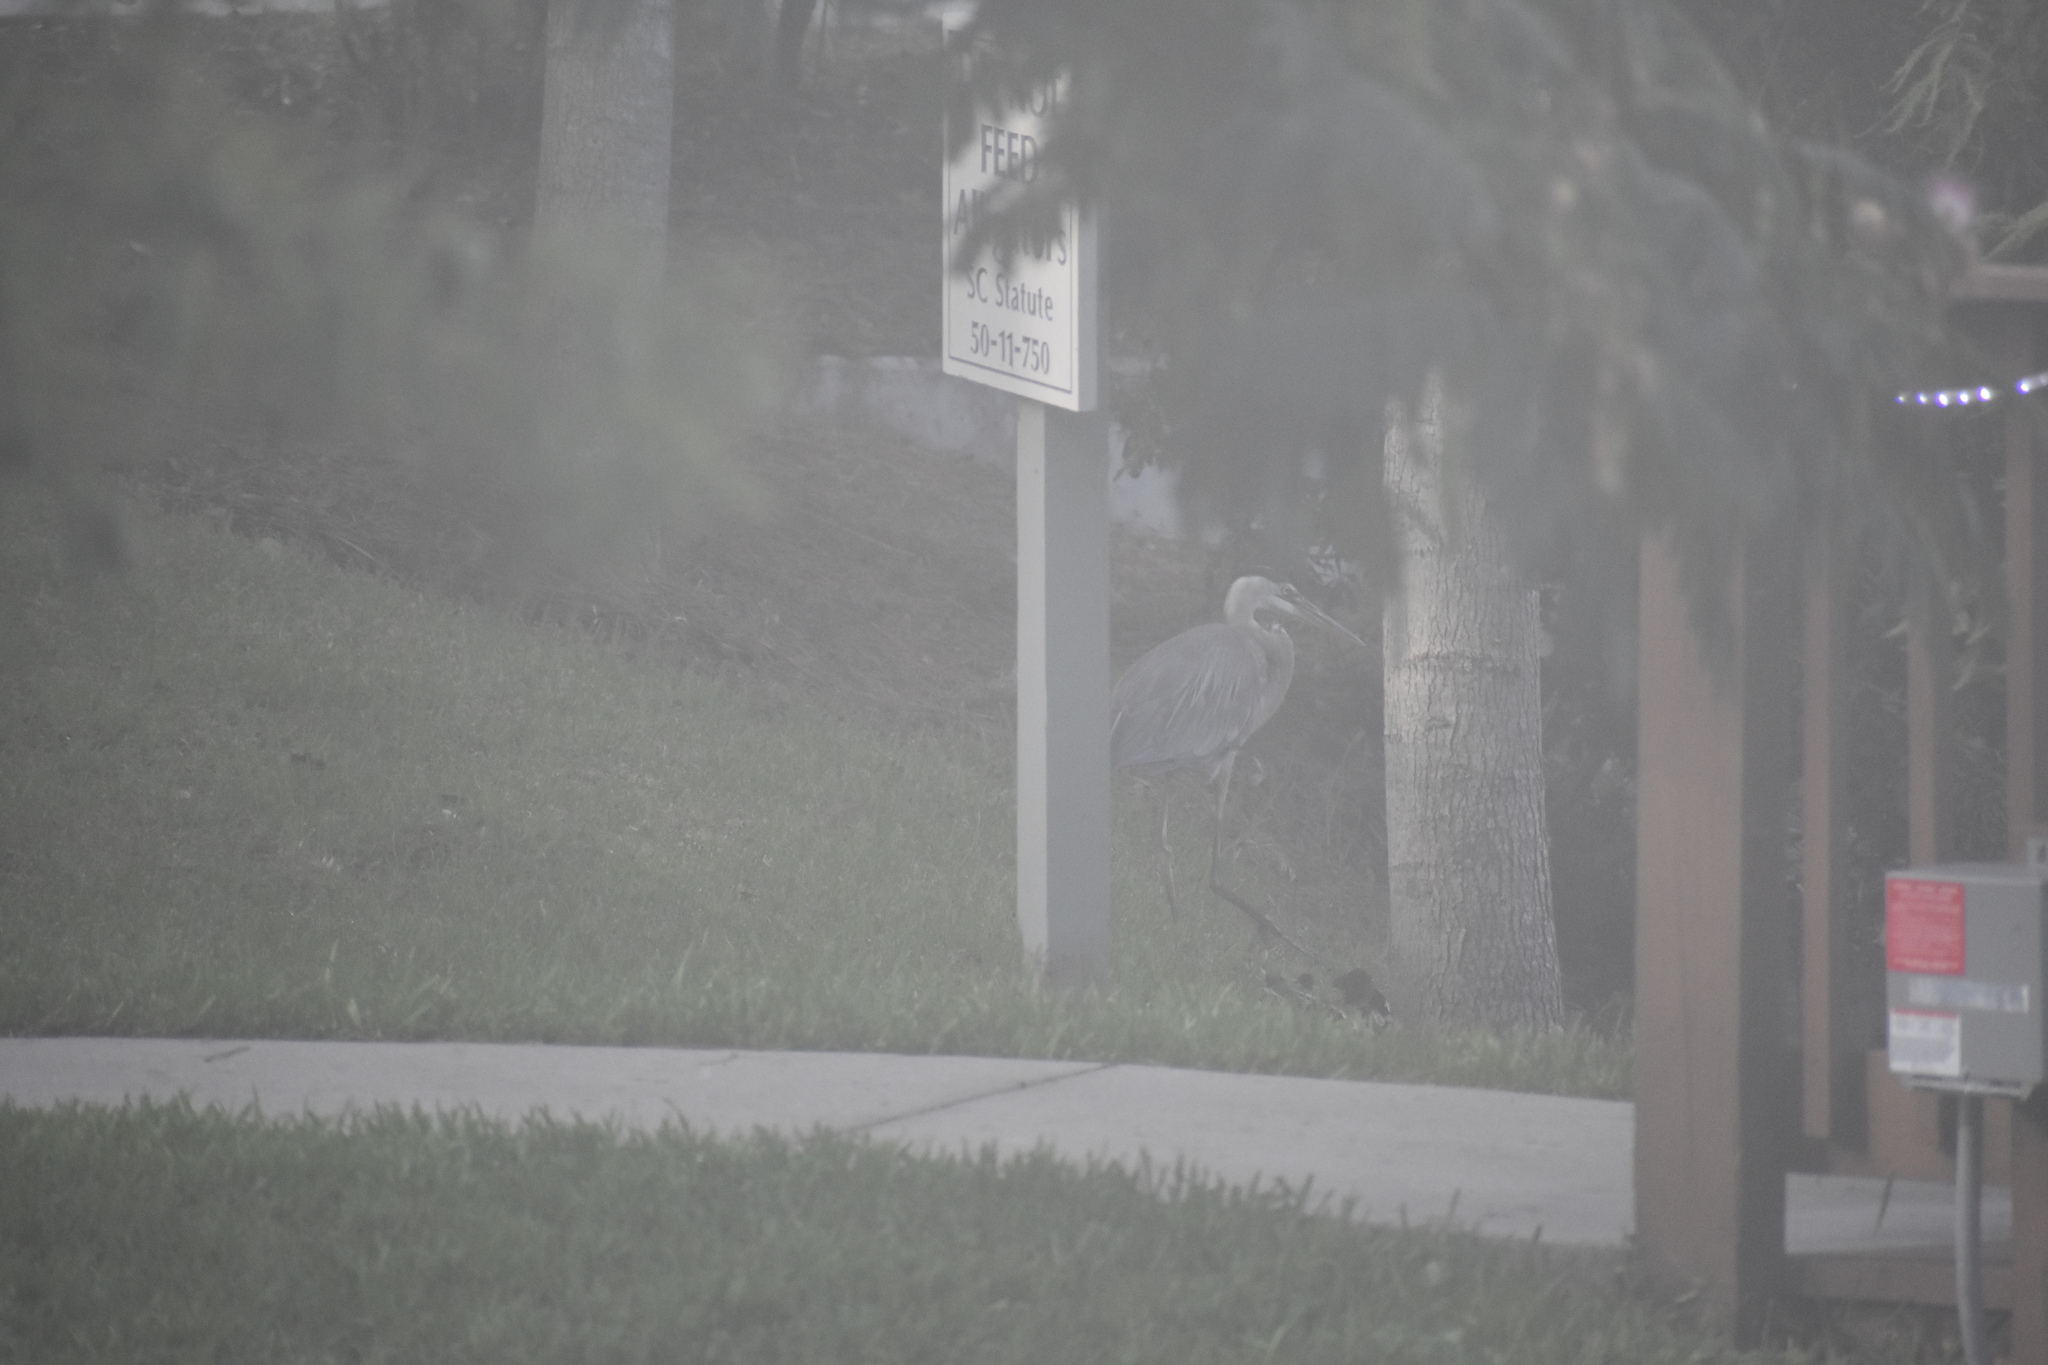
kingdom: Animalia
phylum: Chordata
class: Aves
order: Pelecaniformes
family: Ardeidae
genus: Ardea
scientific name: Ardea herodias
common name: Great blue heron
